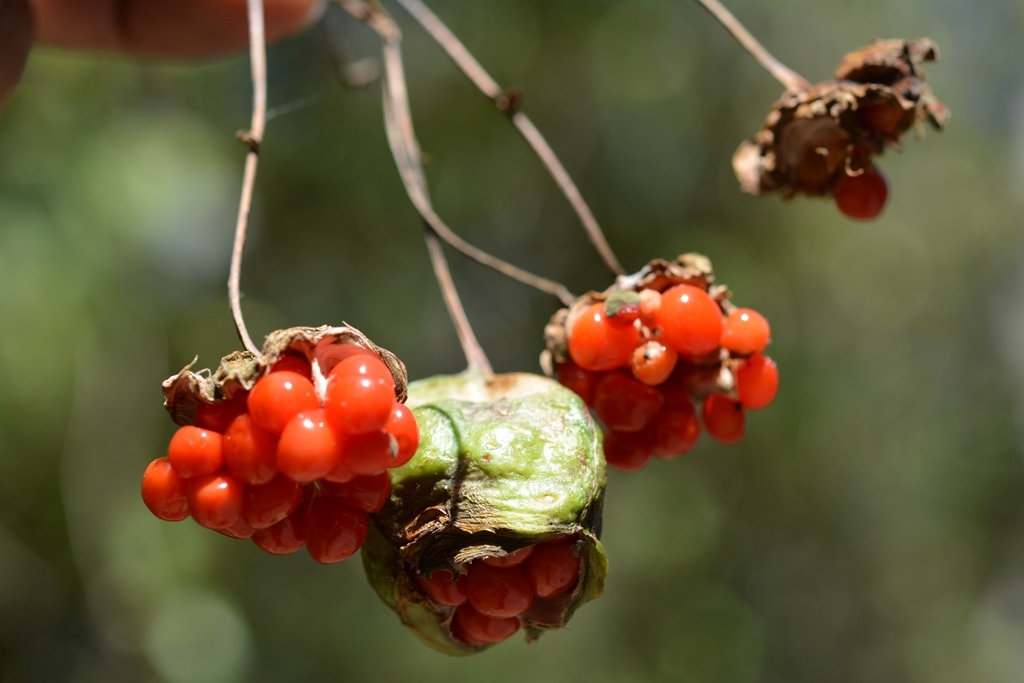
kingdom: Plantae
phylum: Tracheophyta
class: Liliopsida
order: Liliales
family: Alstroemeriaceae
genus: Bomarea
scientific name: Bomarea edulis
